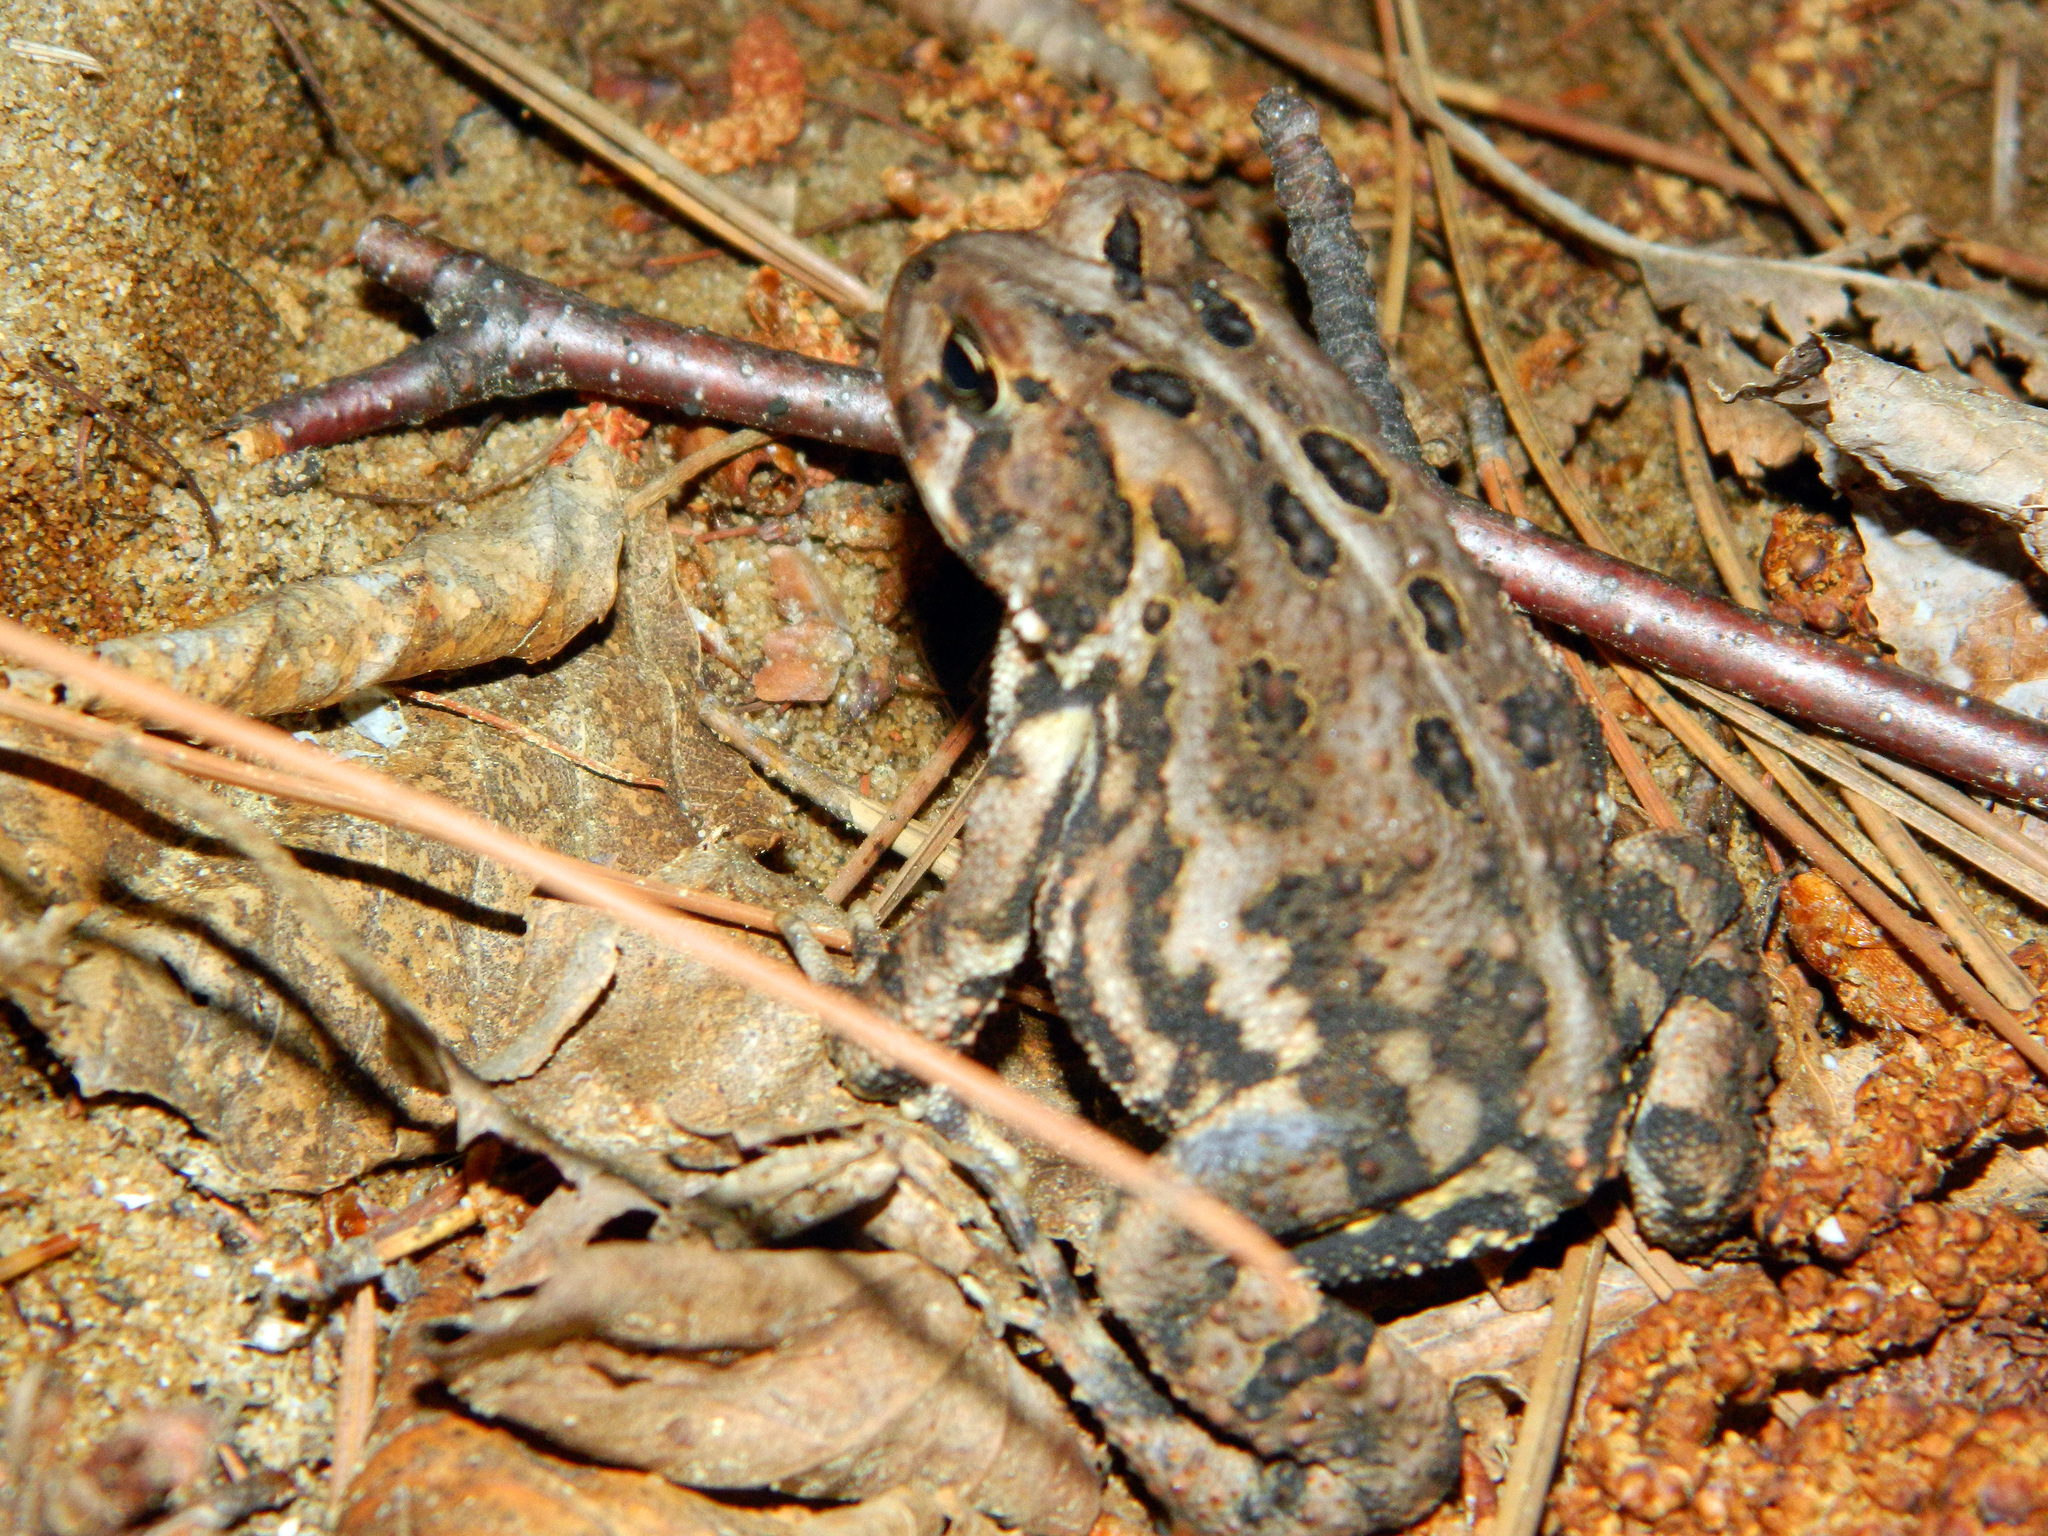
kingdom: Animalia
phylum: Chordata
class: Amphibia
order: Anura
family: Bufonidae
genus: Anaxyrus
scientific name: Anaxyrus americanus
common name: American toad
